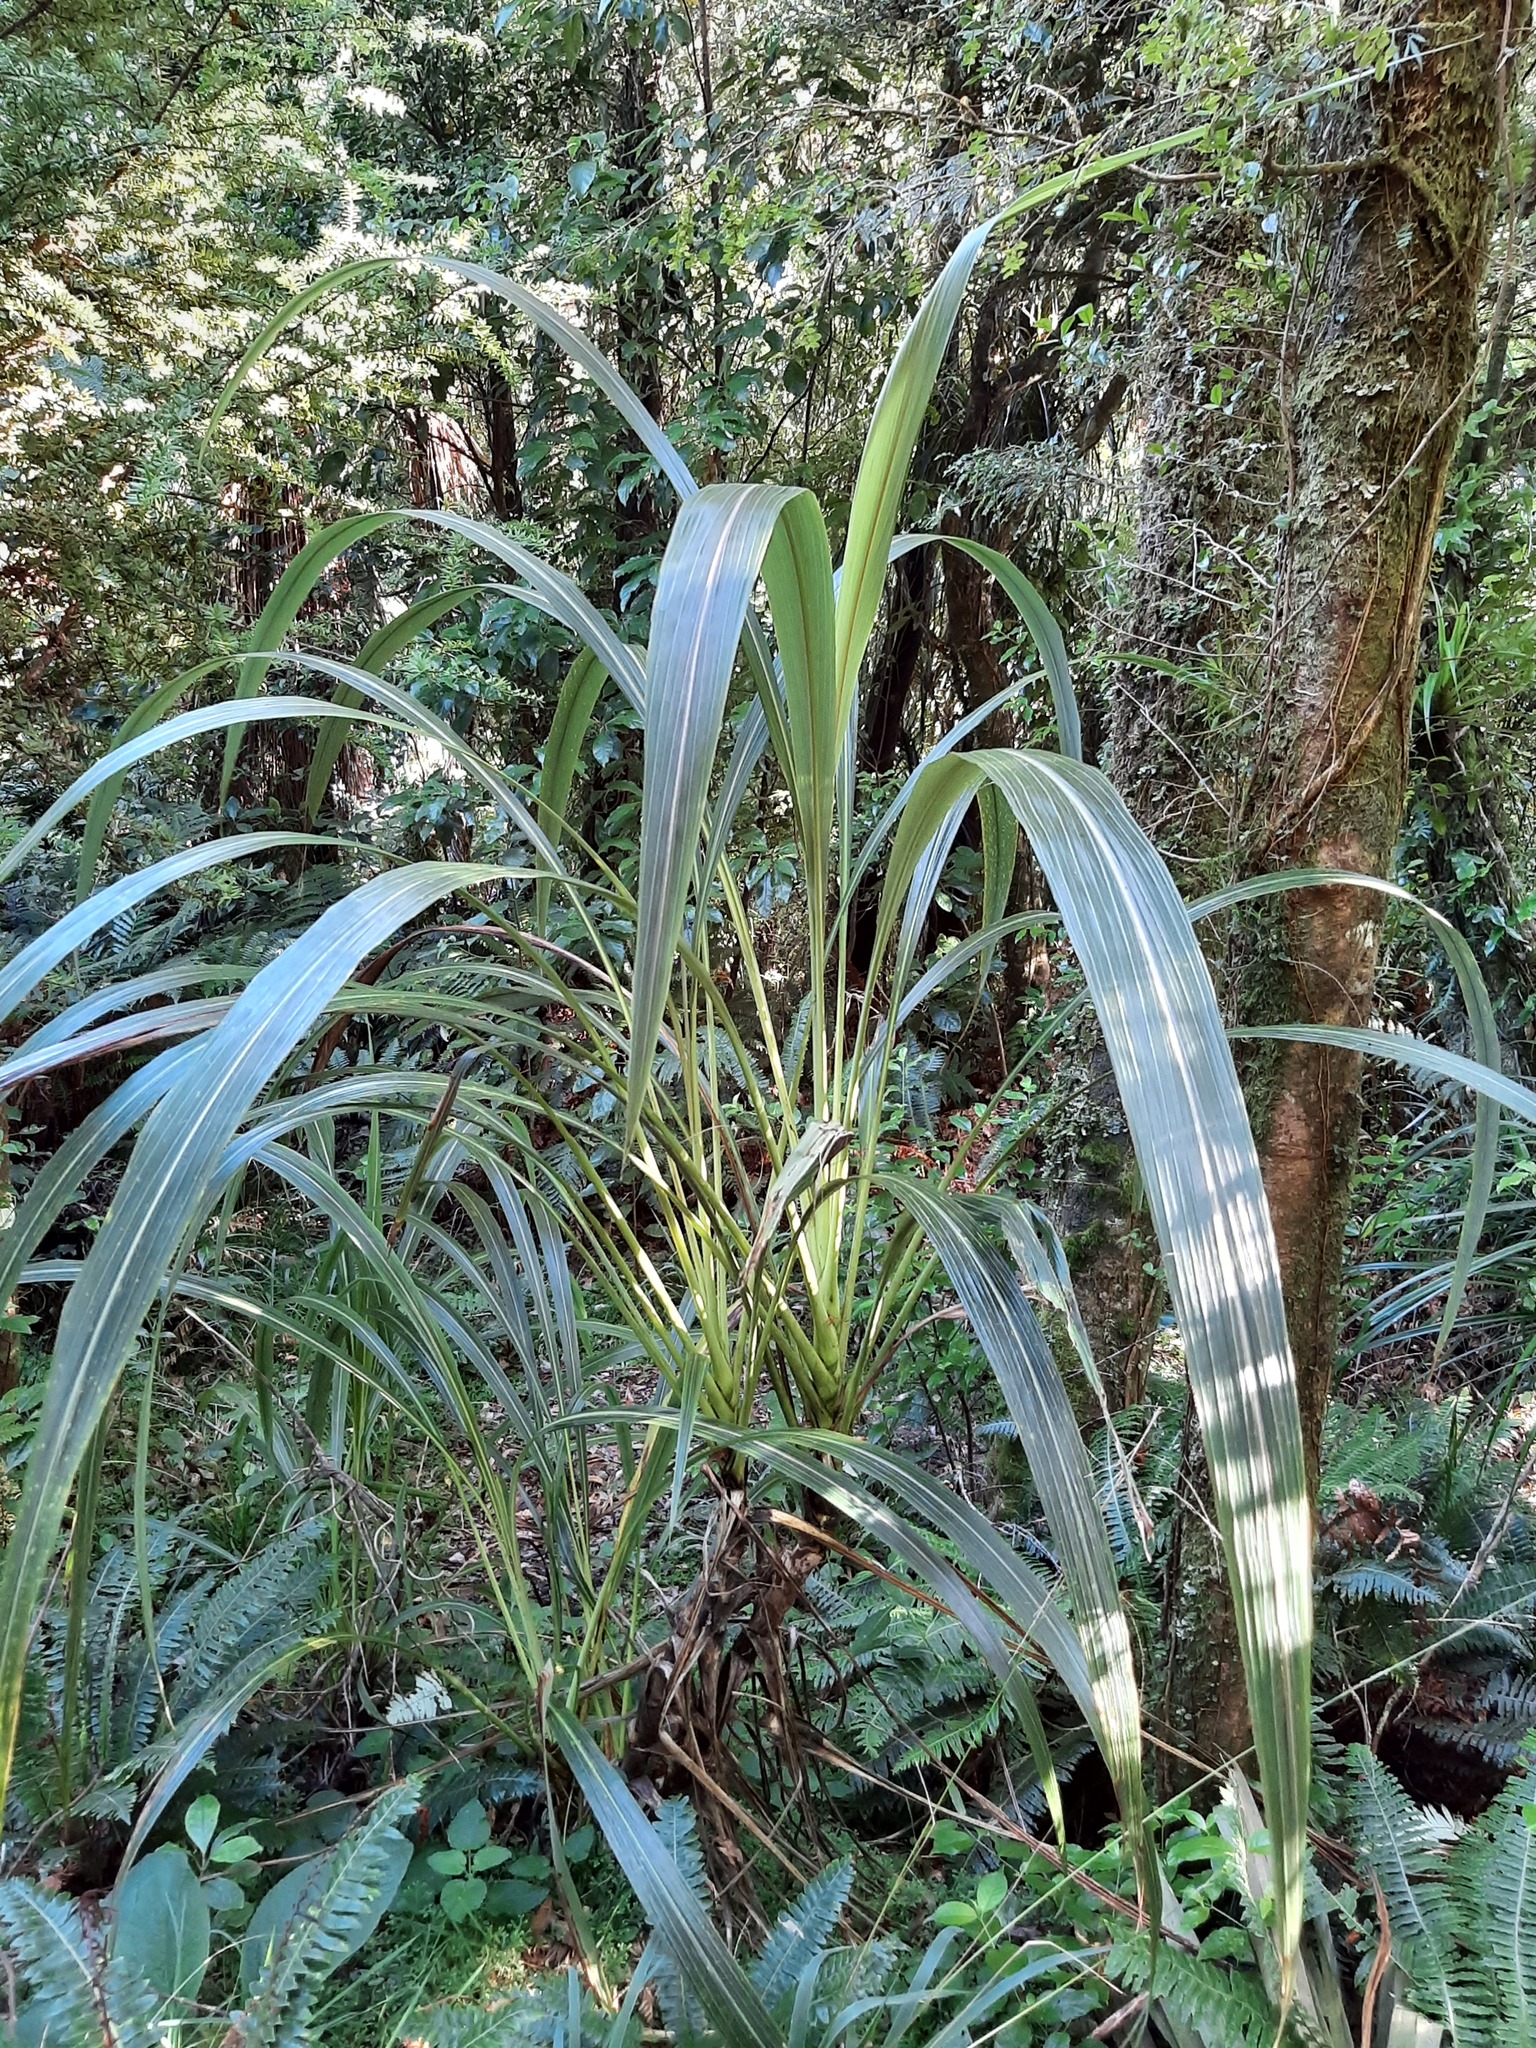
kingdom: Plantae
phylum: Tracheophyta
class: Liliopsida
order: Asparagales
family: Asparagaceae
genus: Cordyline
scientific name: Cordyline banksii
